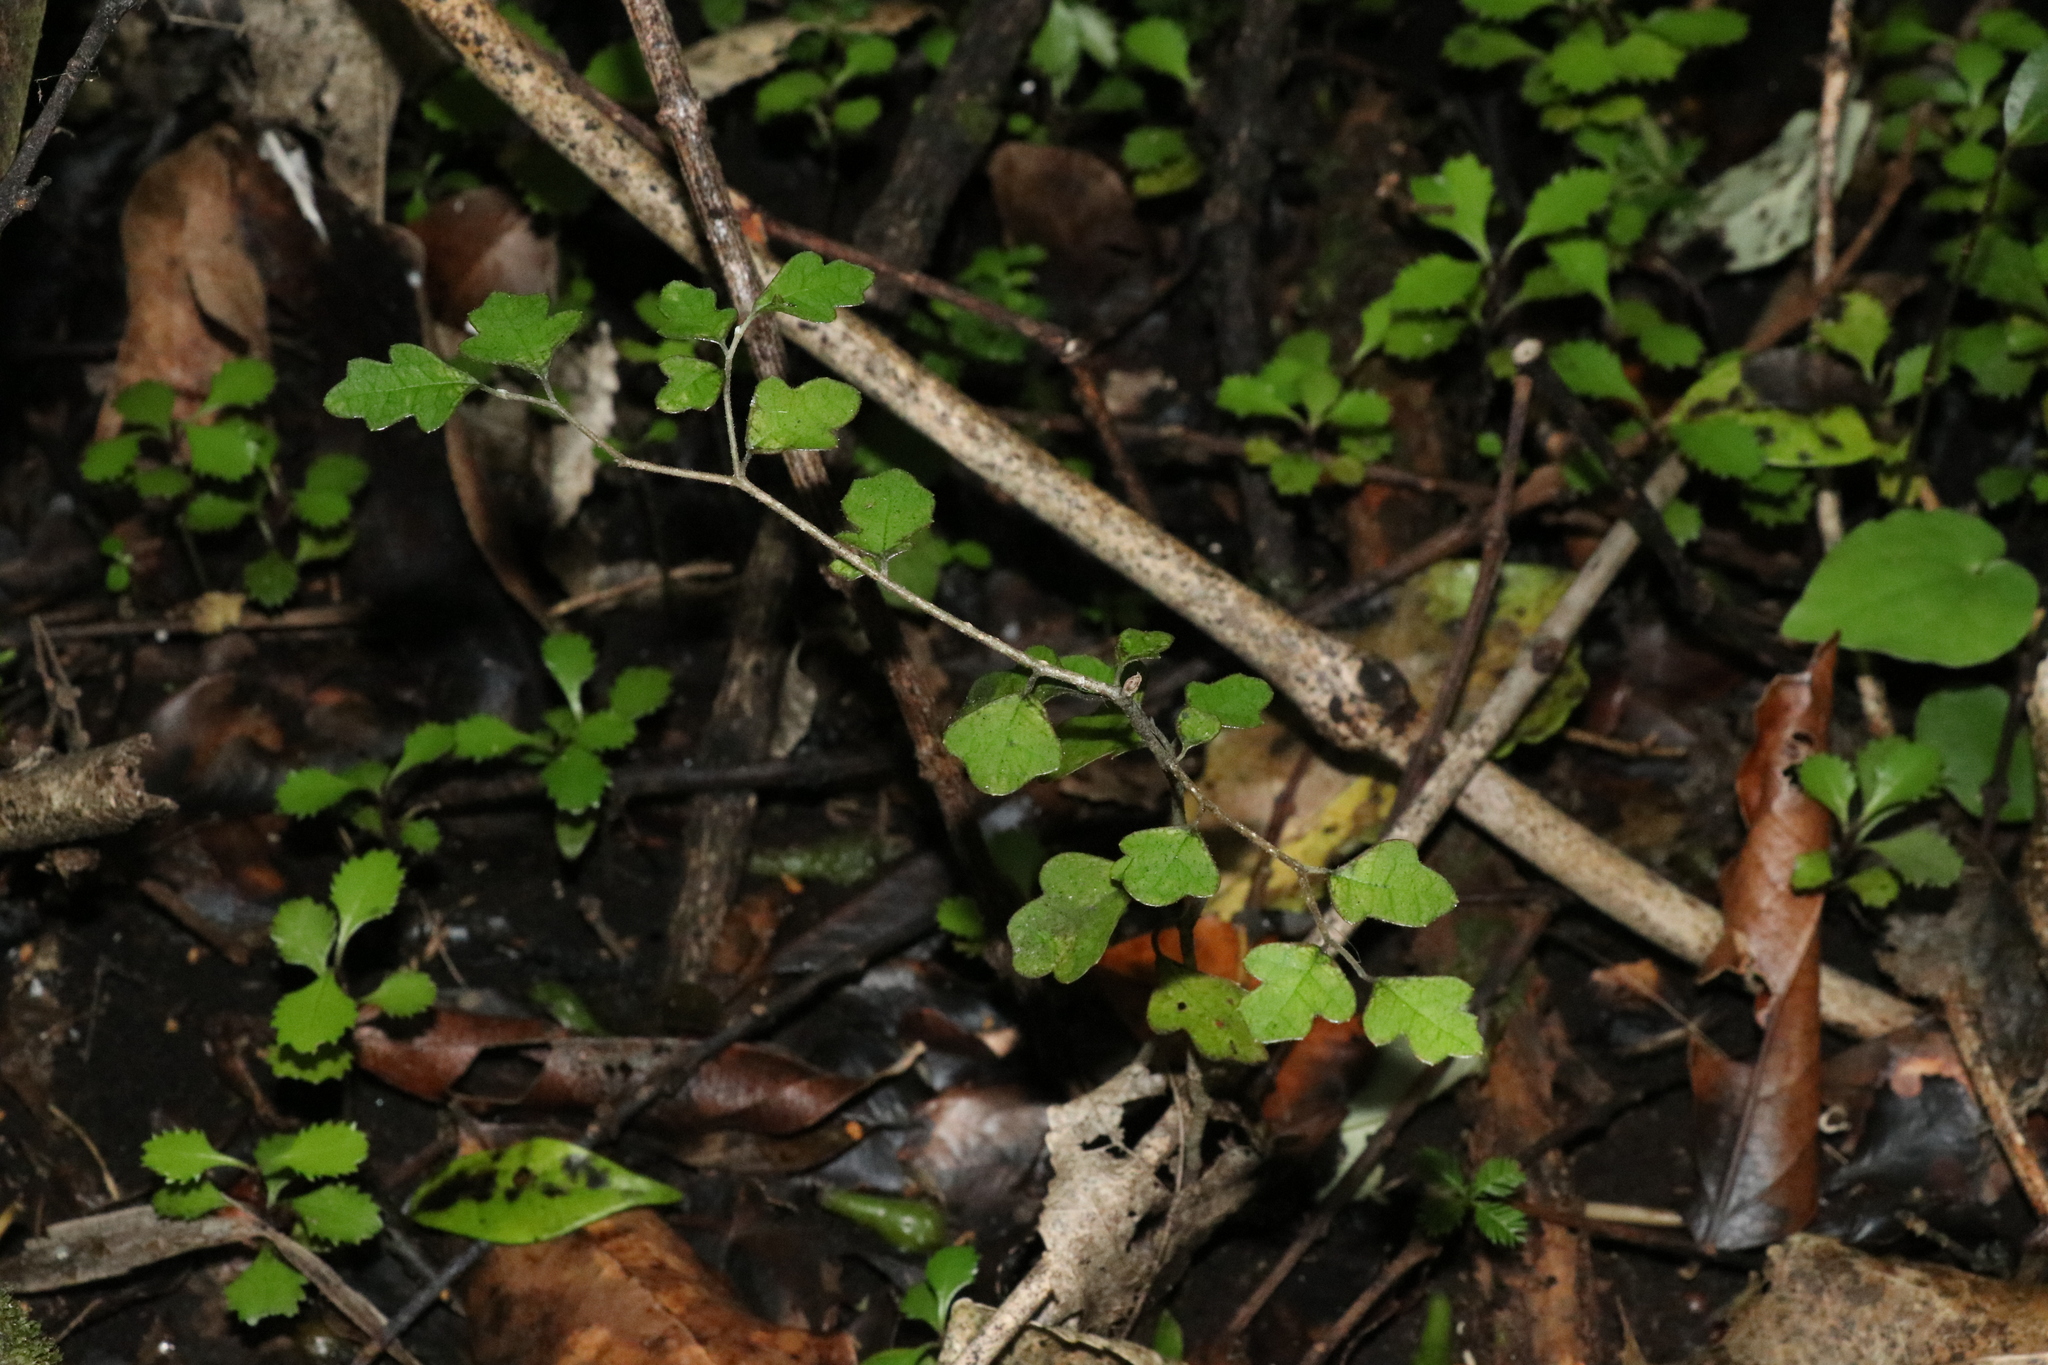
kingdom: Plantae
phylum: Tracheophyta
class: Magnoliopsida
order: Apiales
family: Pennantiaceae
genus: Pennantia
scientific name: Pennantia corymbosa
